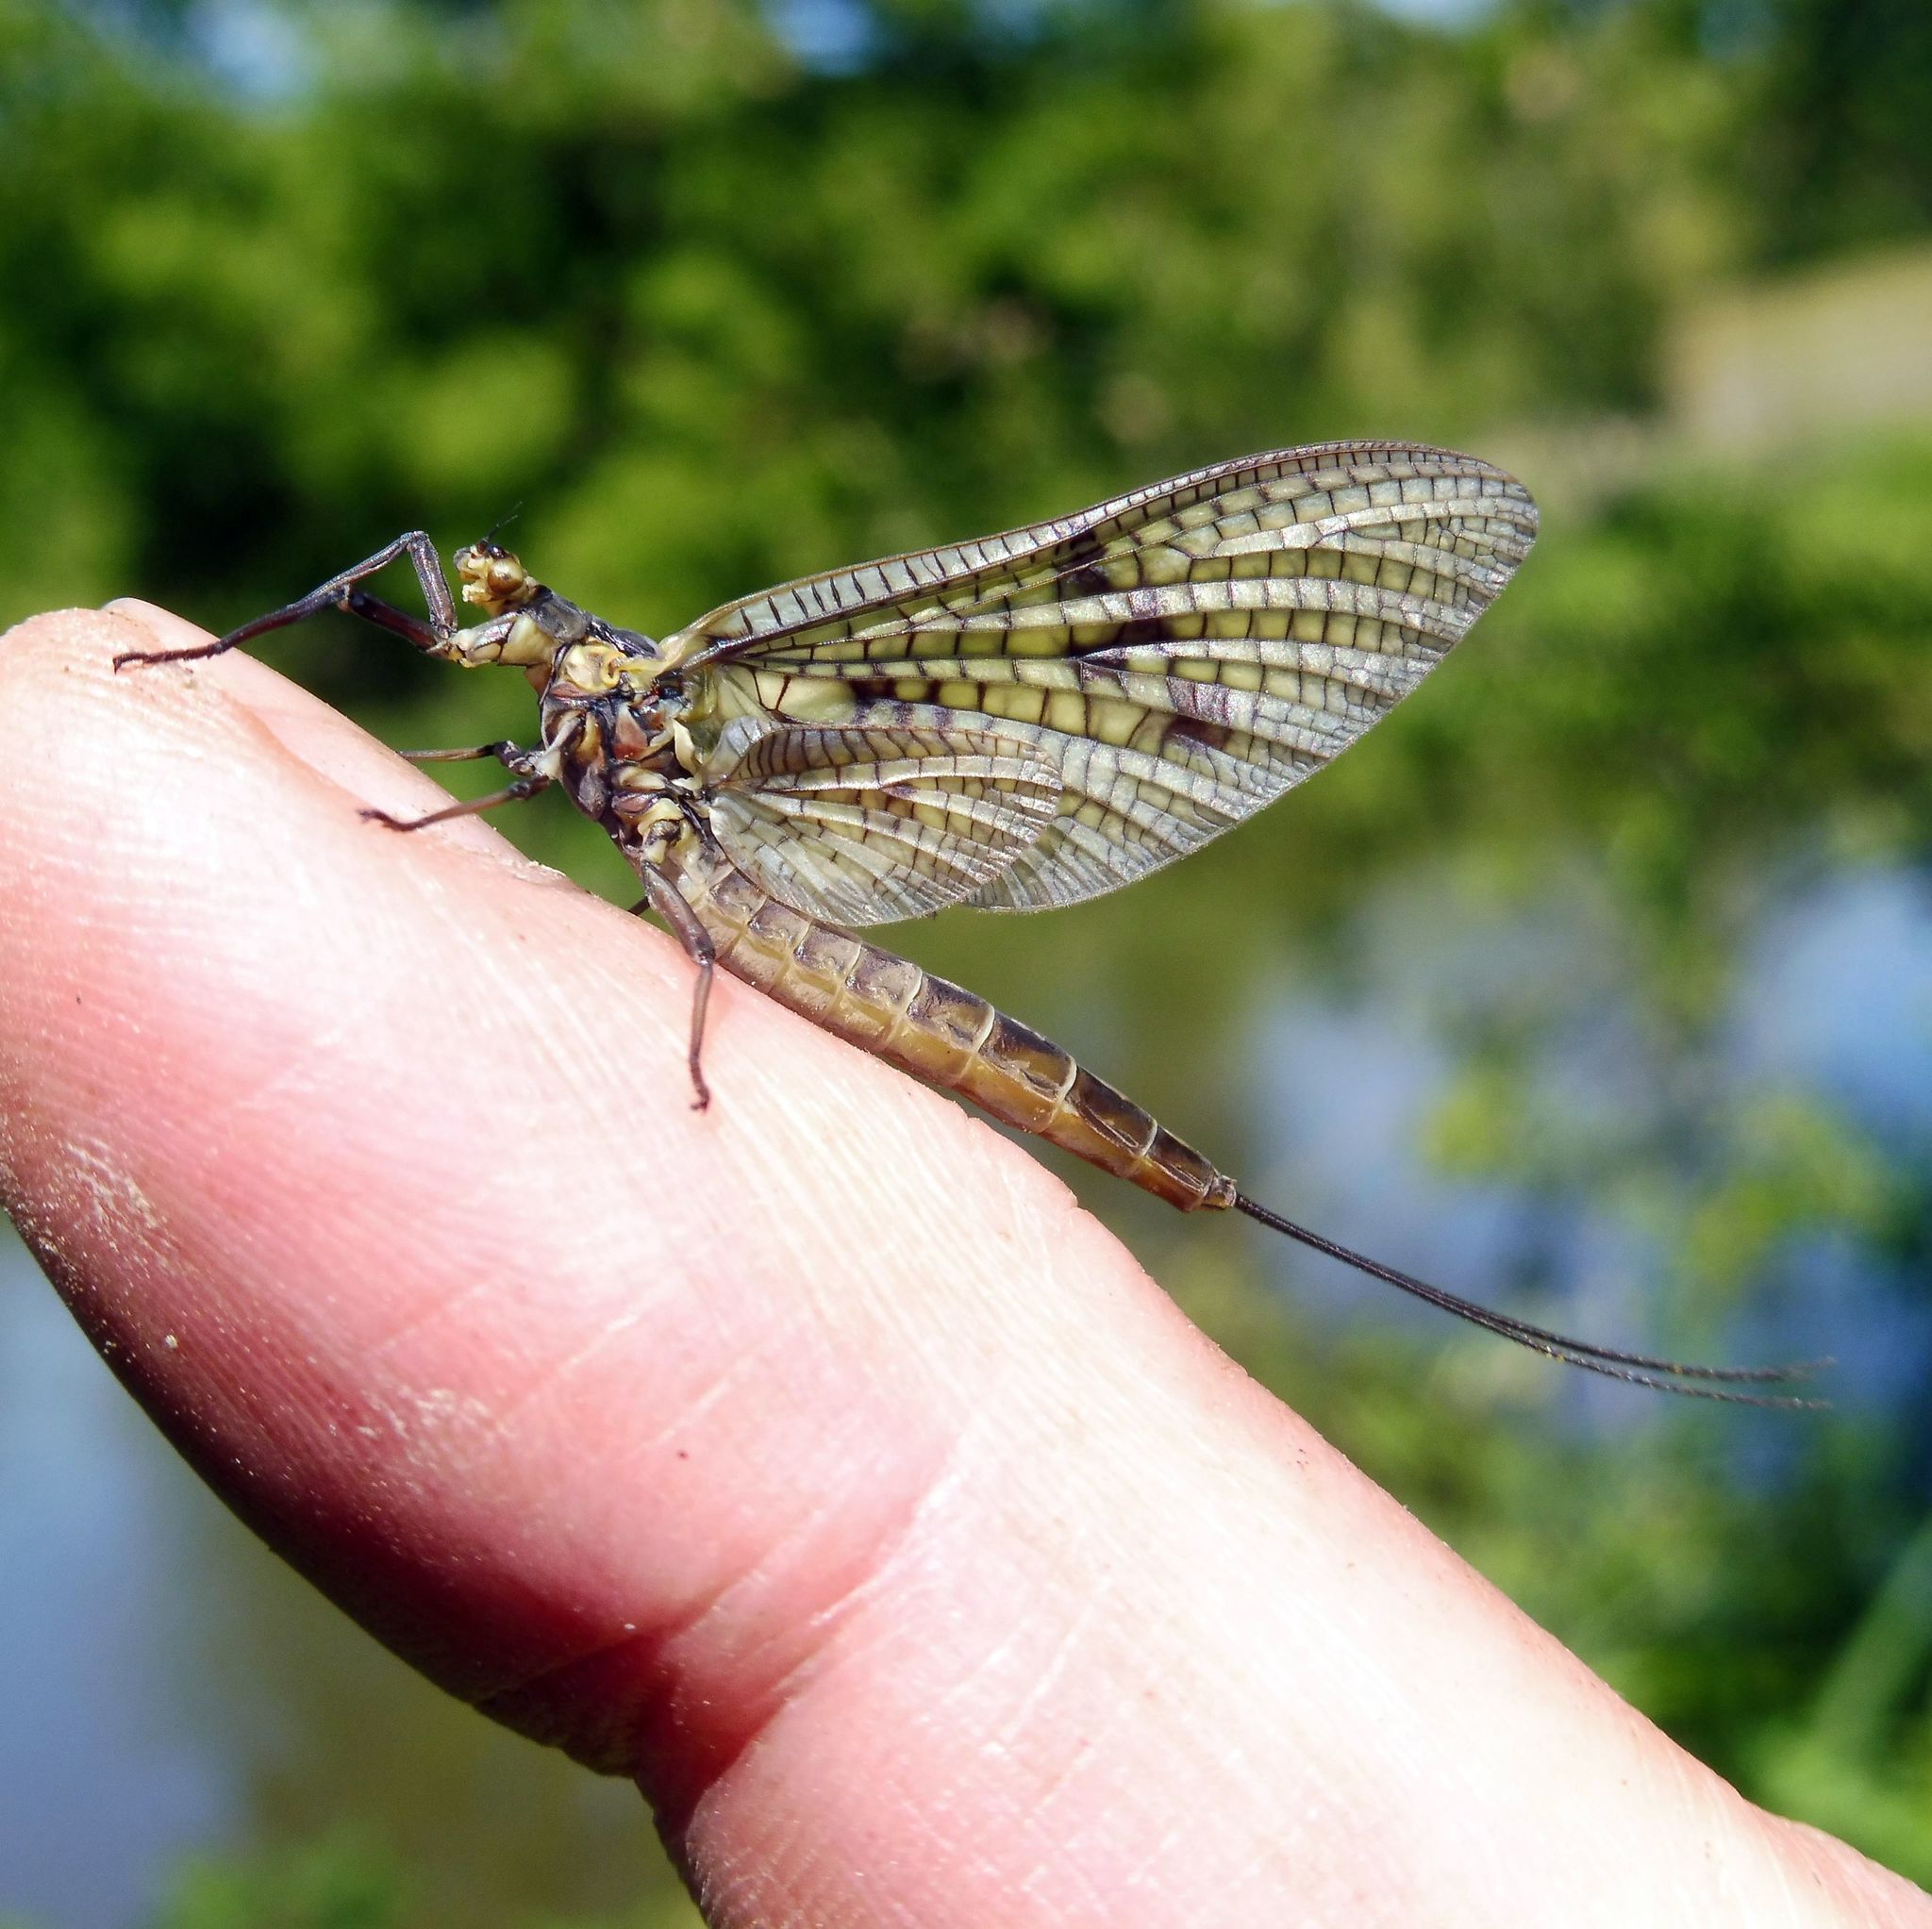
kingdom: Animalia
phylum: Arthropoda
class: Insecta
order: Ephemeroptera
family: Ephemeridae
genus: Ephemera
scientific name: Ephemera vulgata
